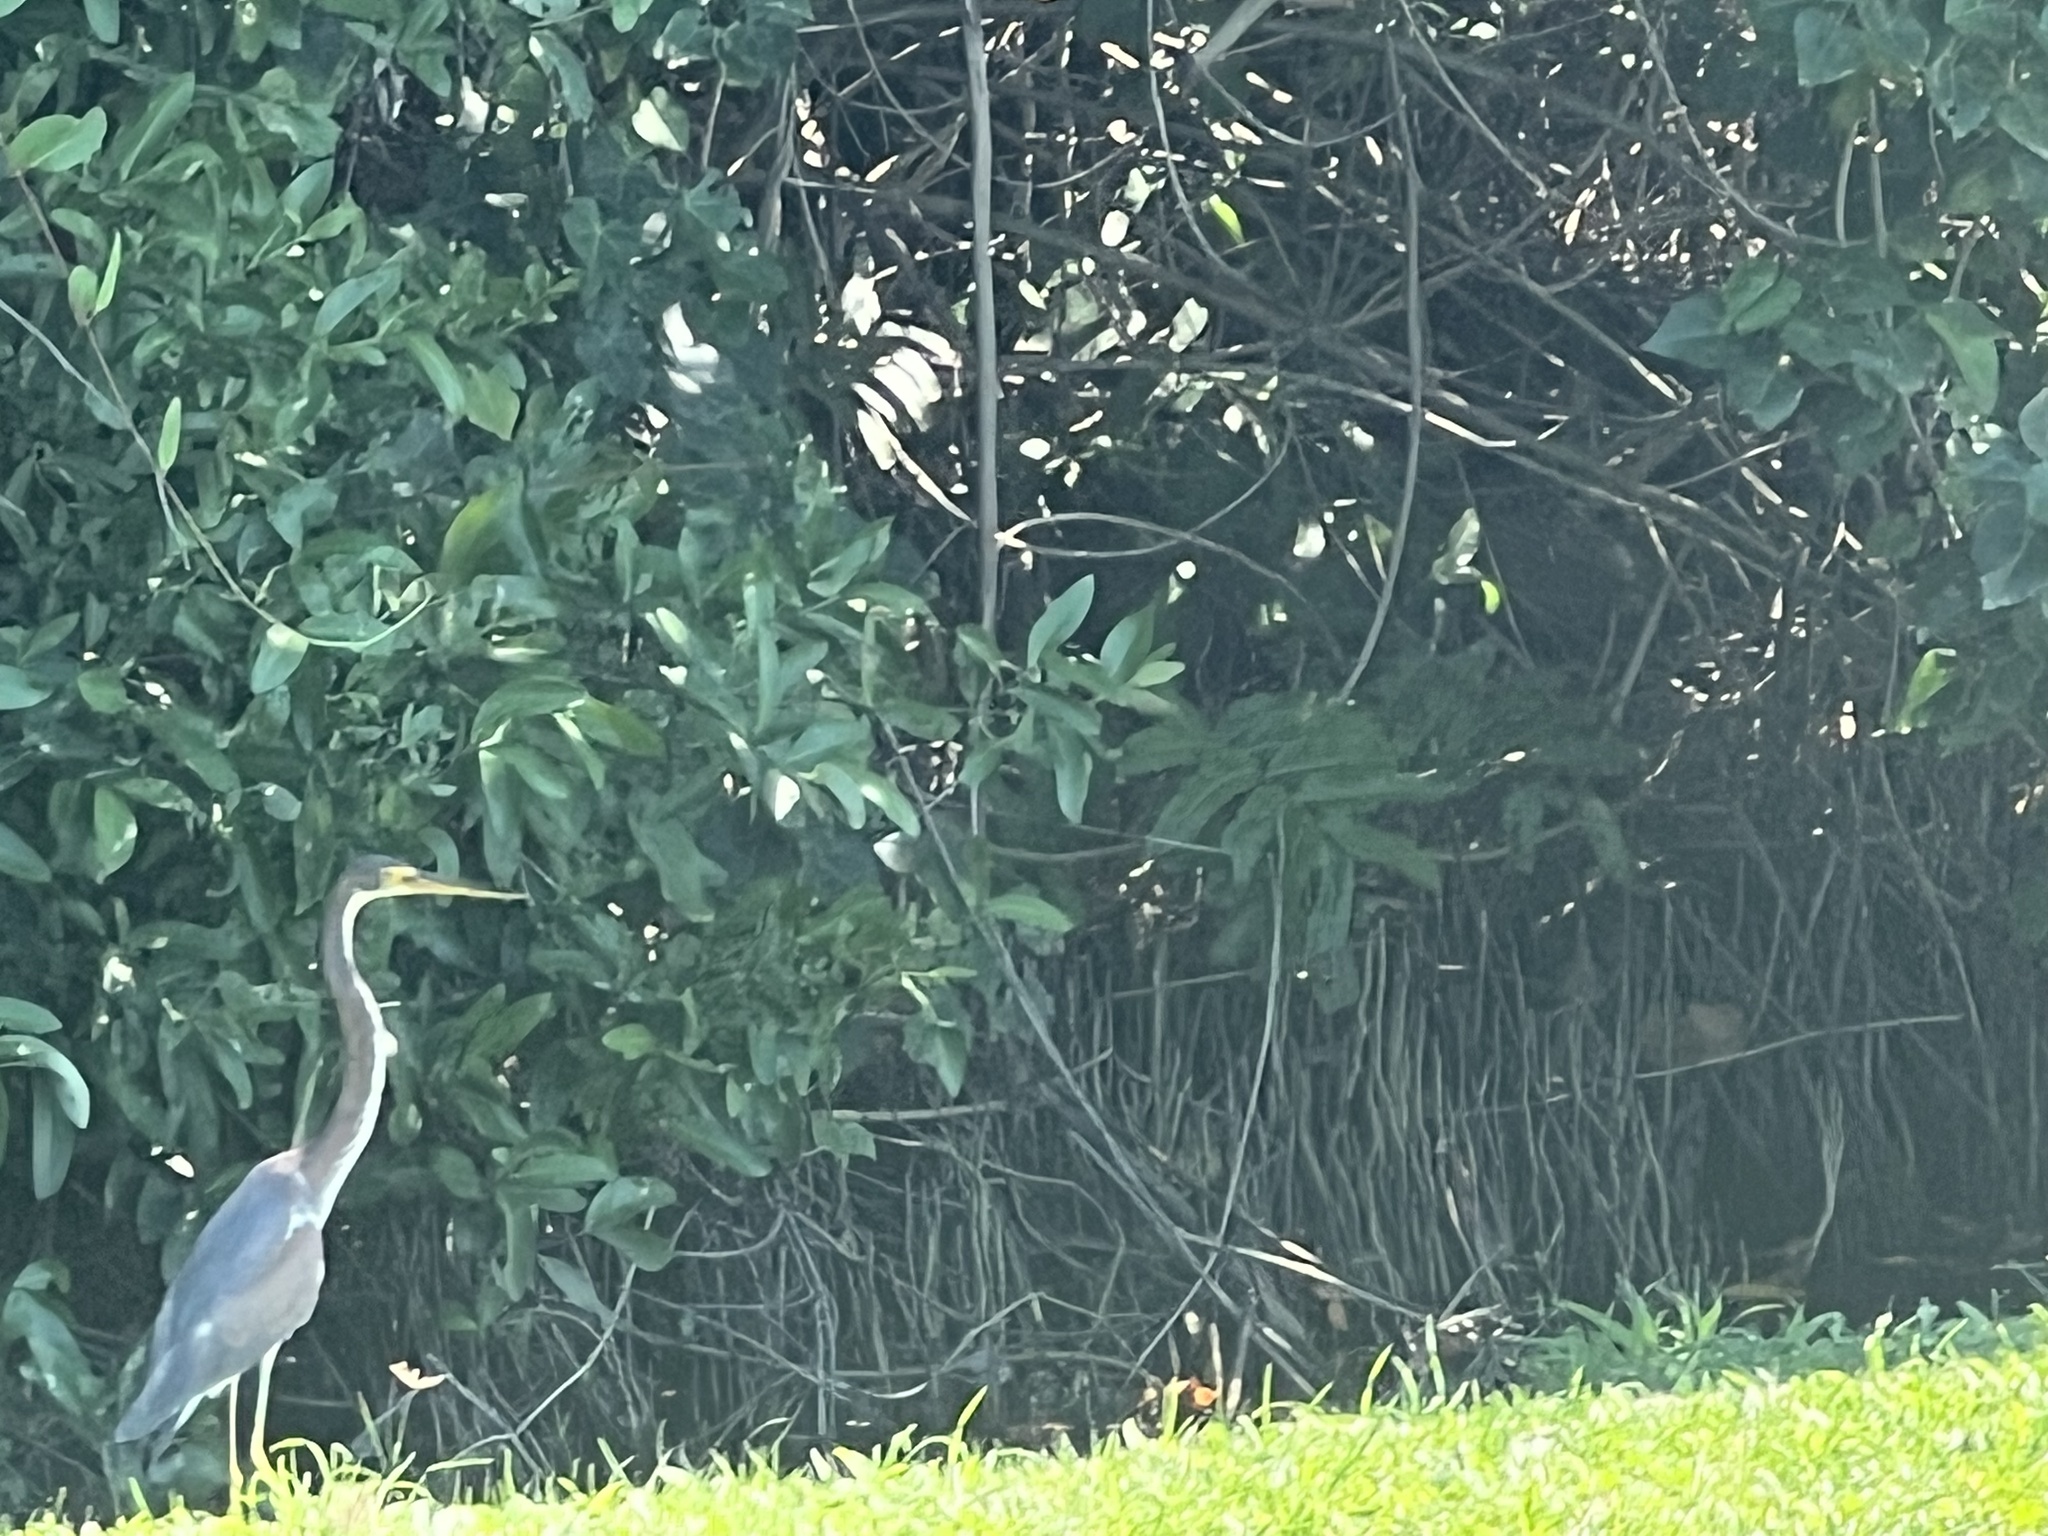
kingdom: Animalia
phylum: Chordata
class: Aves
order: Pelecaniformes
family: Ardeidae
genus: Egretta
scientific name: Egretta tricolor
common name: Tricolored heron
